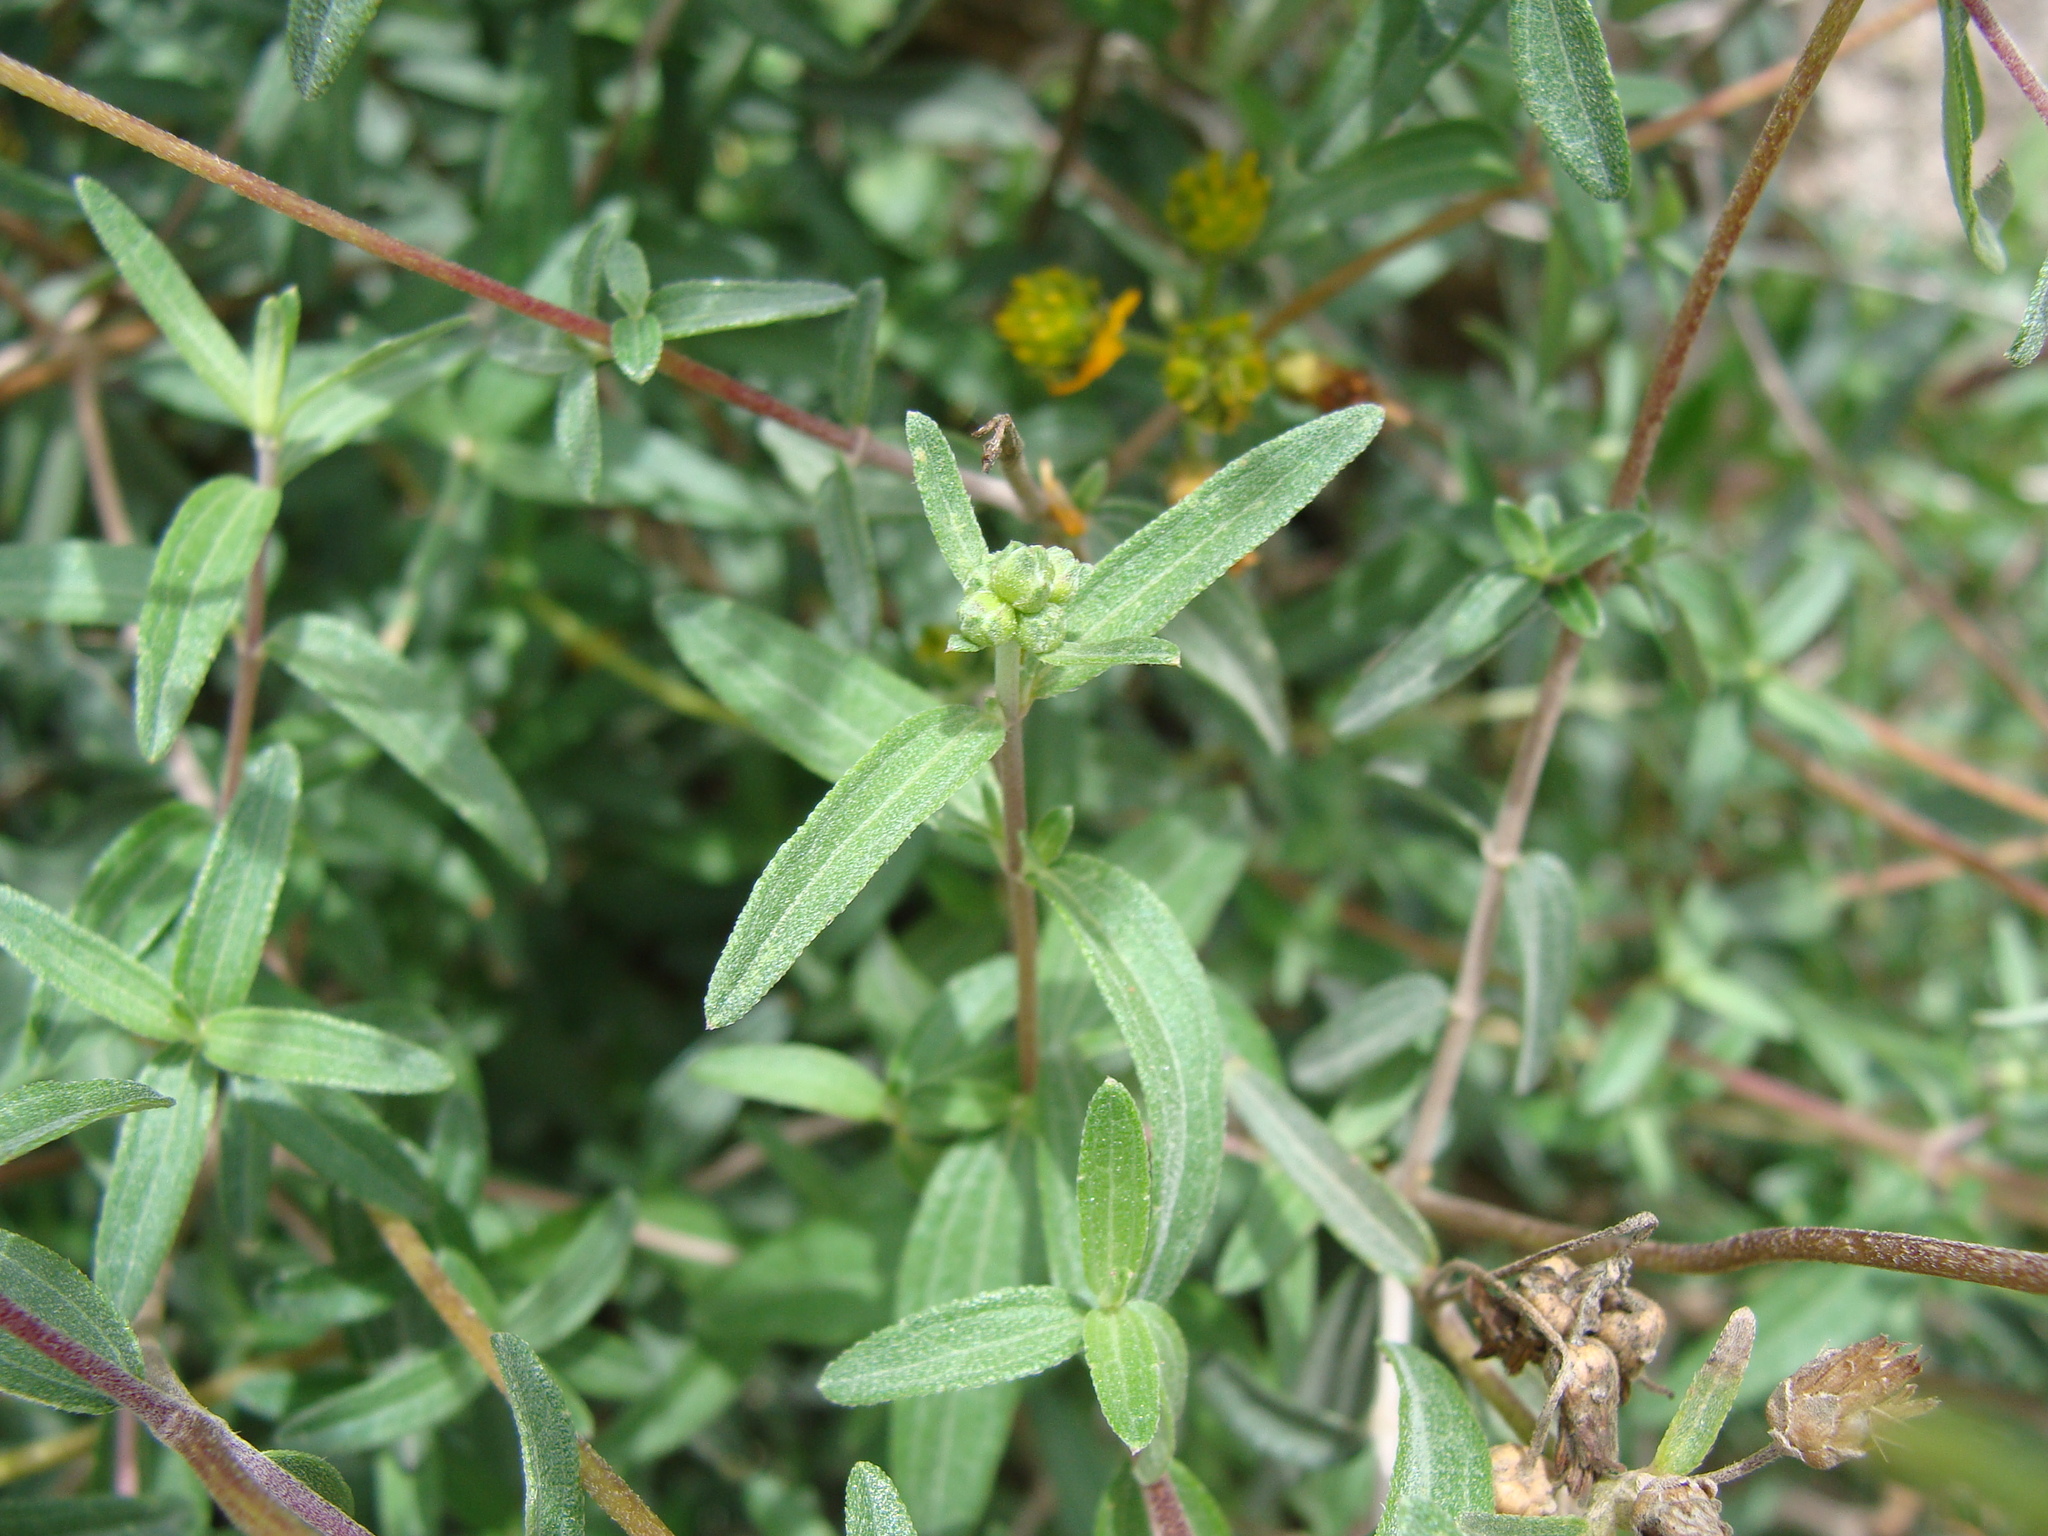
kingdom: Plantae
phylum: Tracheophyta
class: Magnoliopsida
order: Asterales
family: Asteraceae
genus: Perymenium
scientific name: Perymenium mendezii
